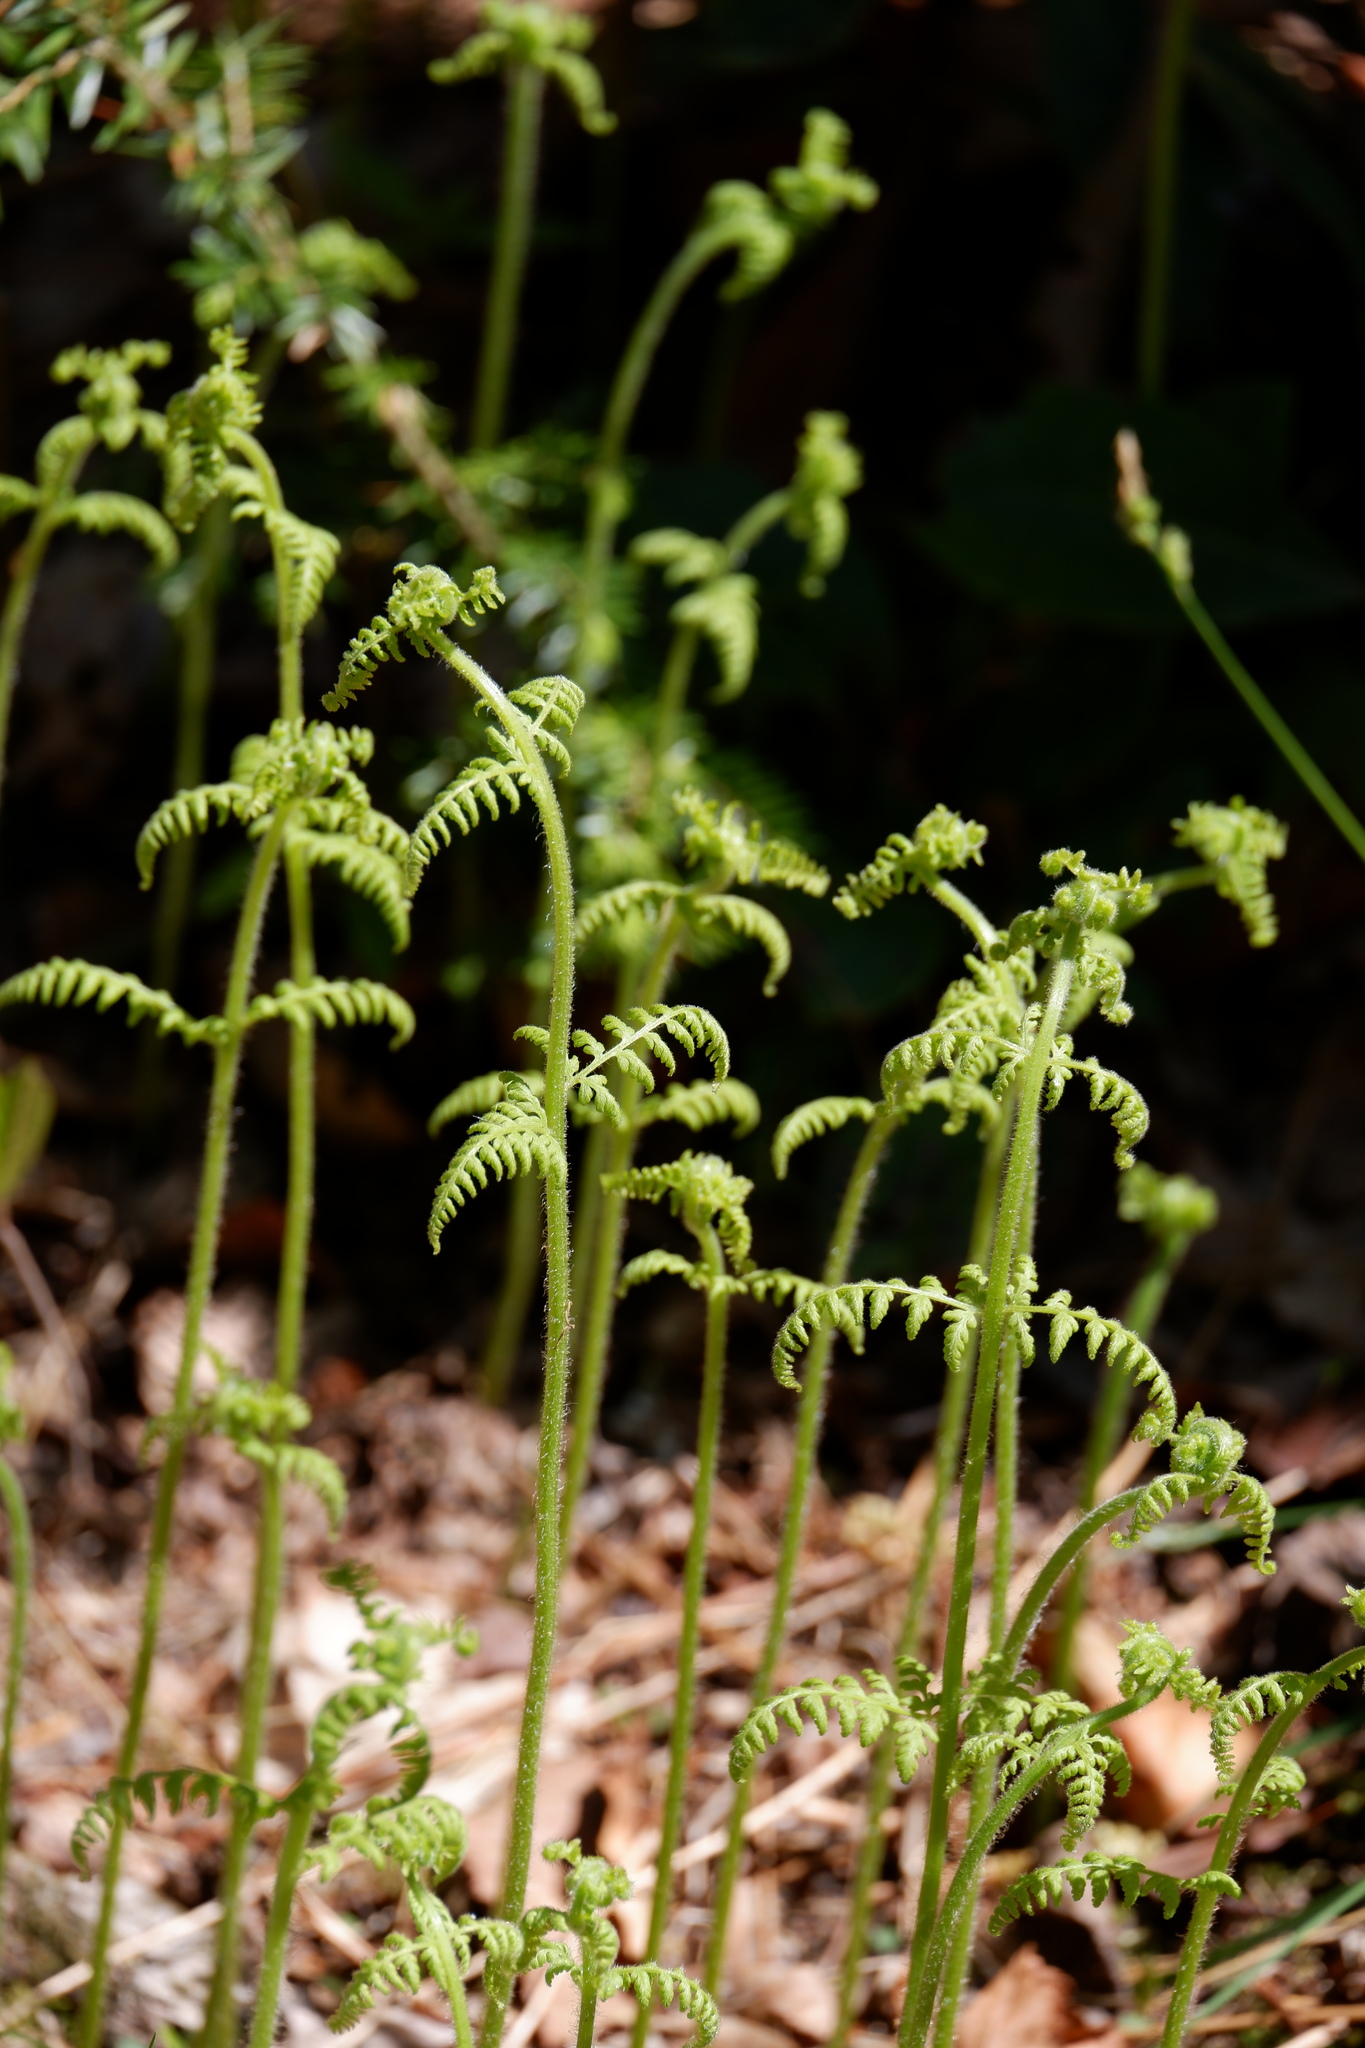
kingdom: Plantae
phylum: Tracheophyta
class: Polypodiopsida
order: Polypodiales
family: Dennstaedtiaceae
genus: Sitobolium
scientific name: Sitobolium punctilobum
